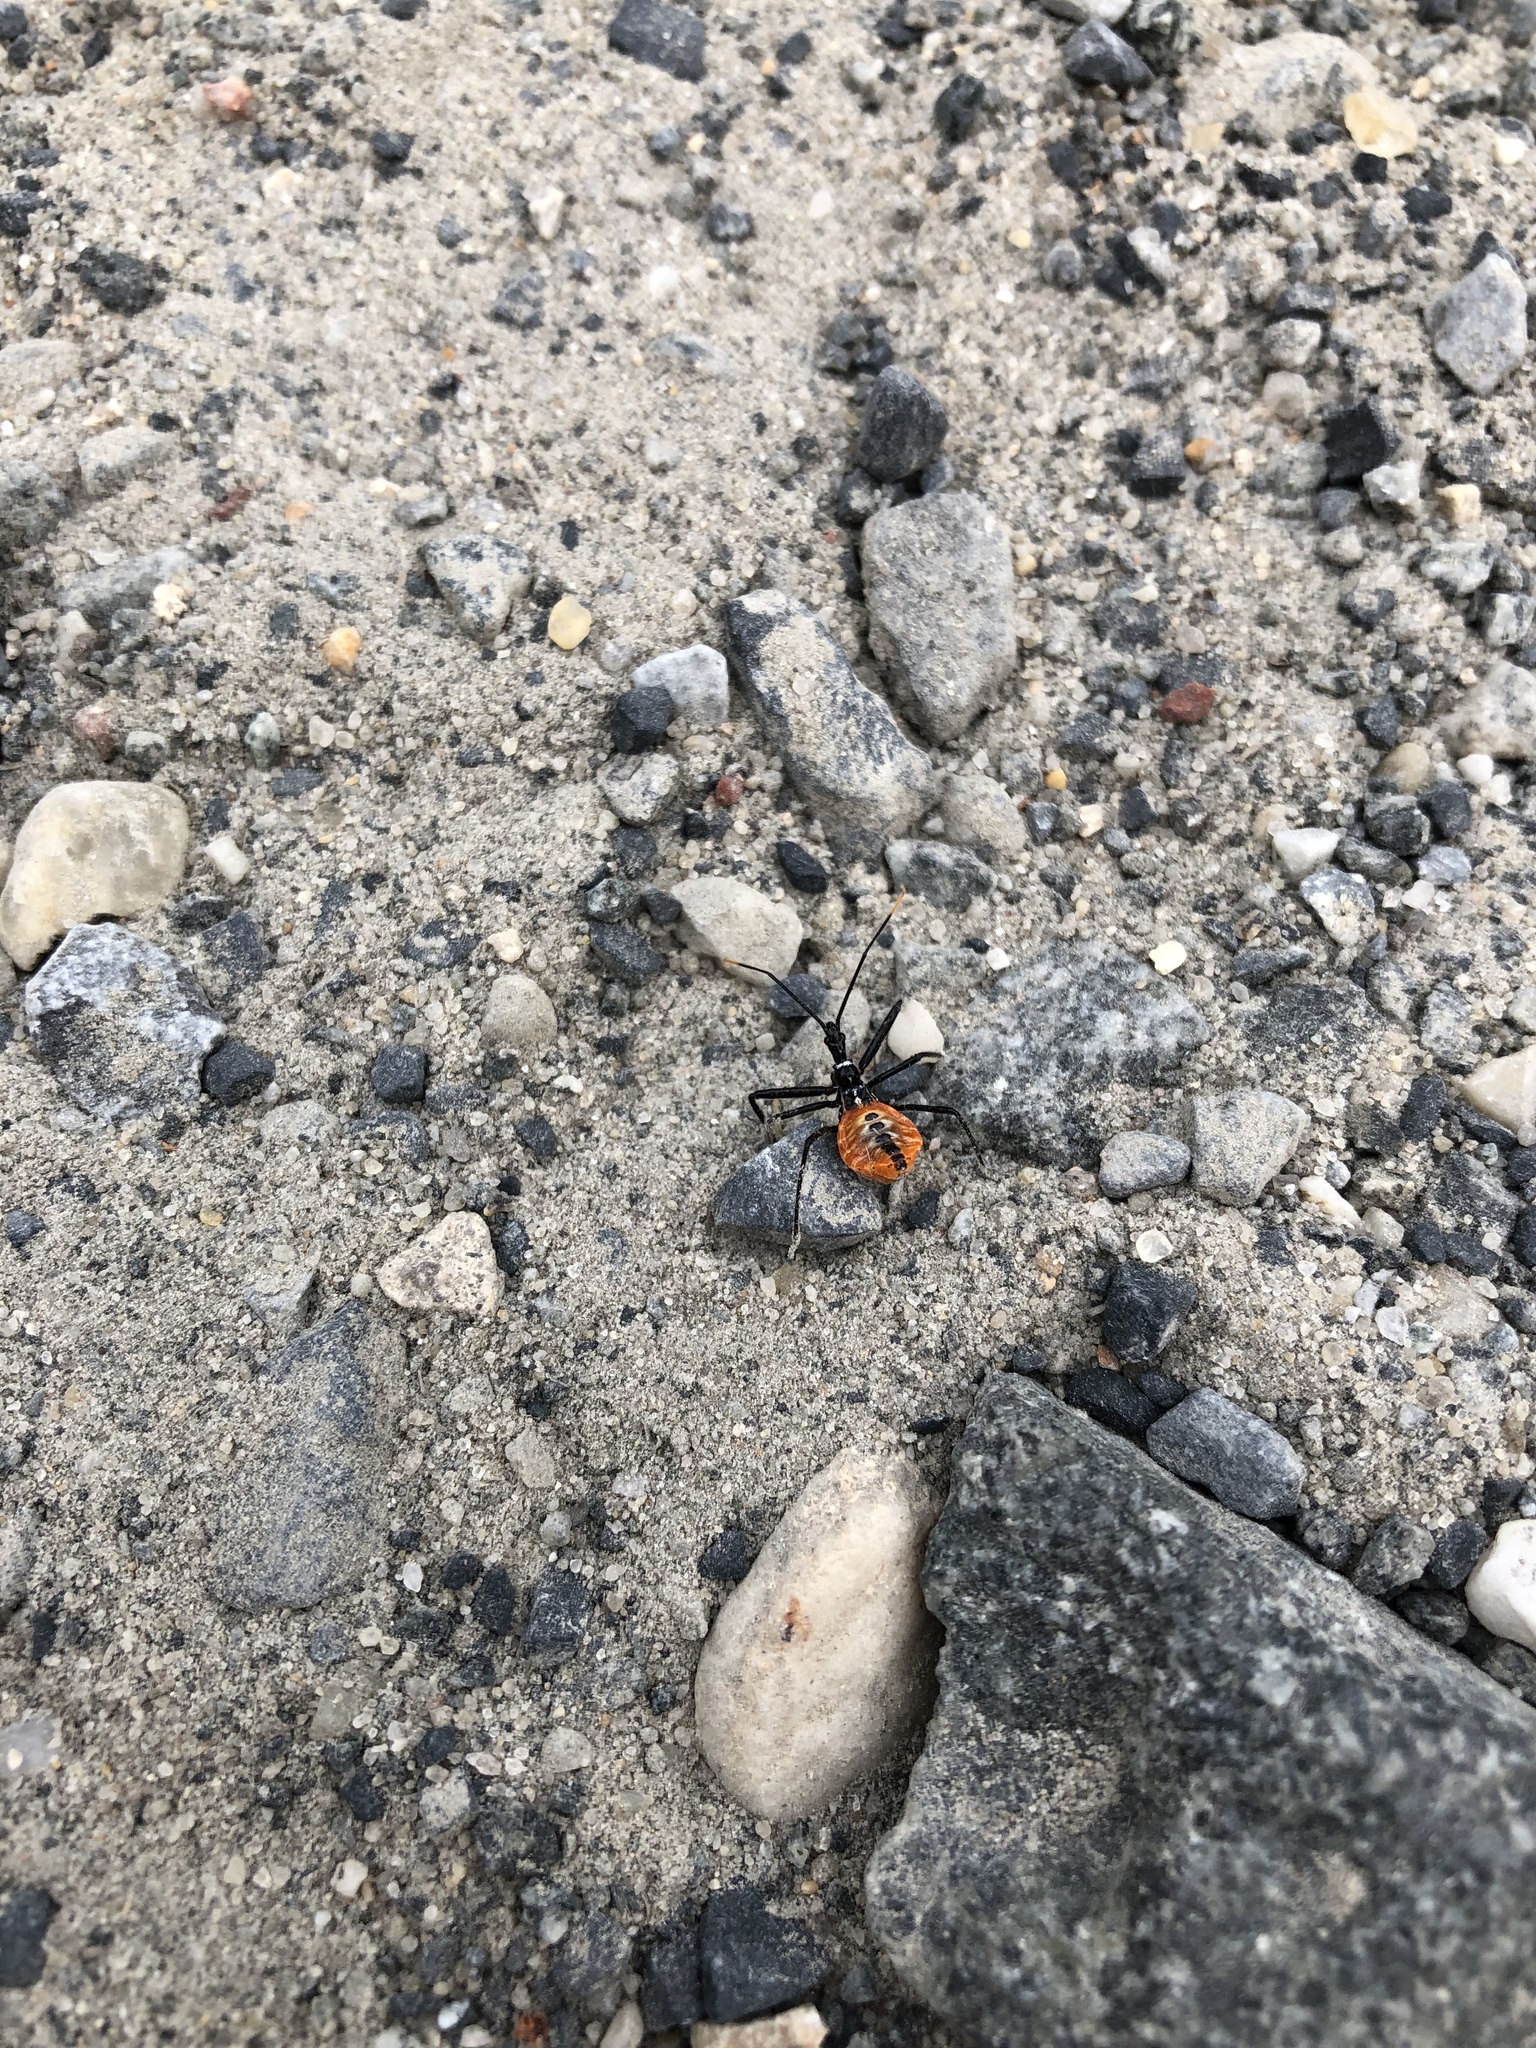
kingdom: Animalia
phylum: Arthropoda
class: Insecta
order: Hemiptera
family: Reduviidae
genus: Arilus
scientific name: Arilus cristatus
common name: North american wheel bug
